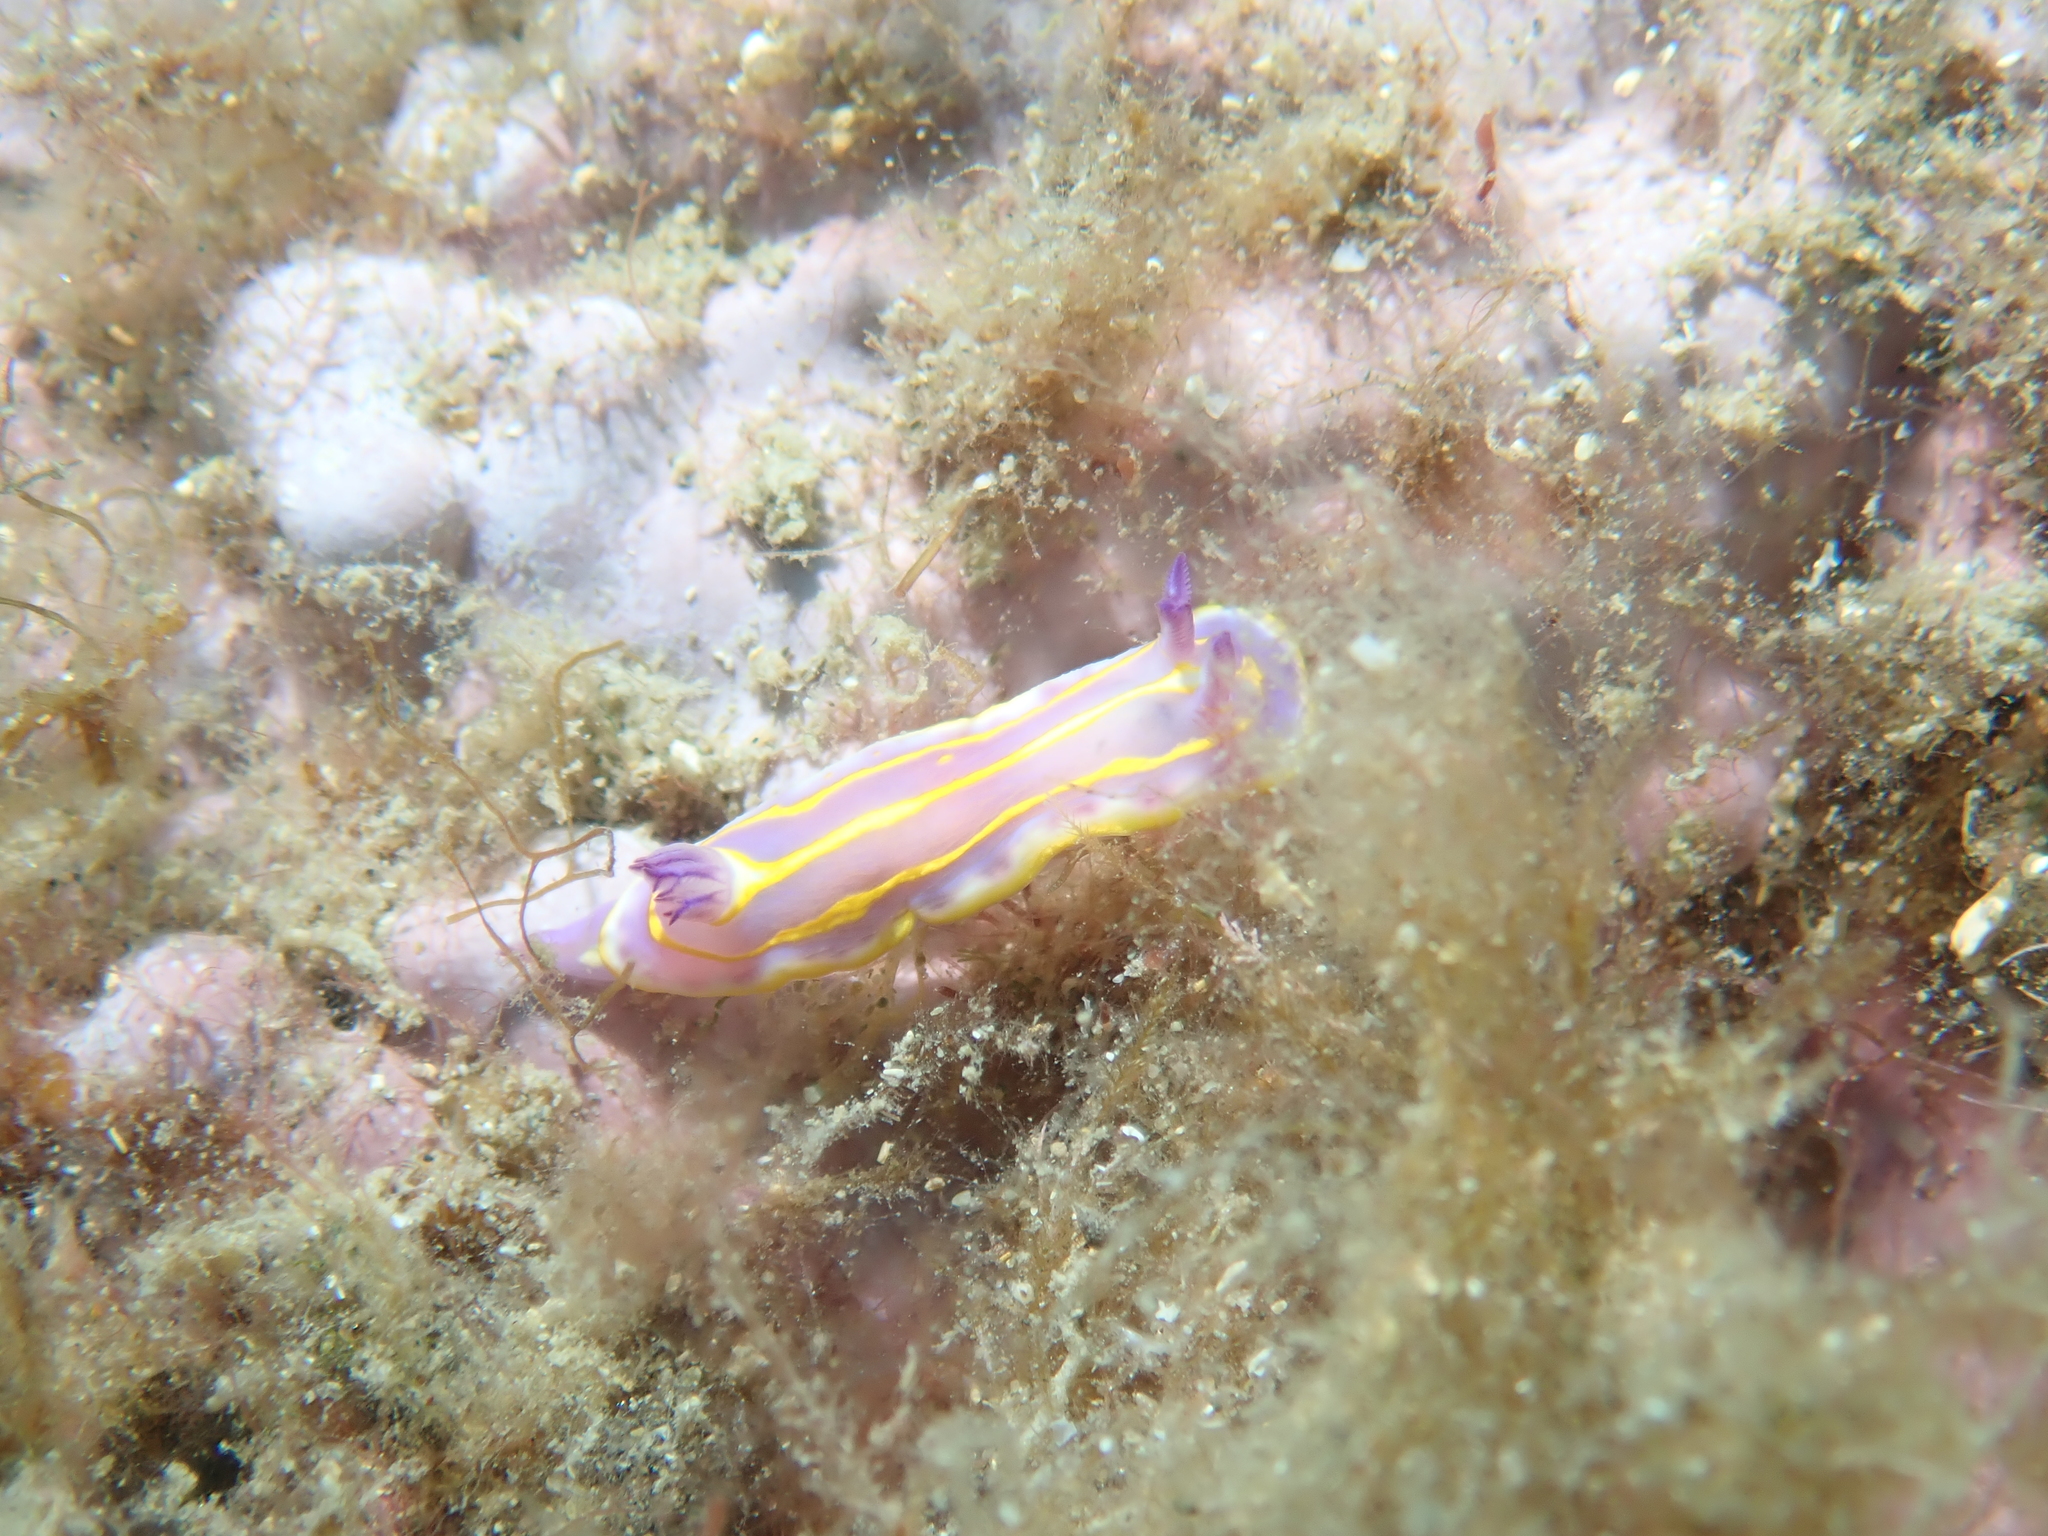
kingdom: Animalia
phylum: Mollusca
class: Gastropoda
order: Nudibranchia
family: Chromodorididae
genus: Felimida
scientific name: Felimida binza
